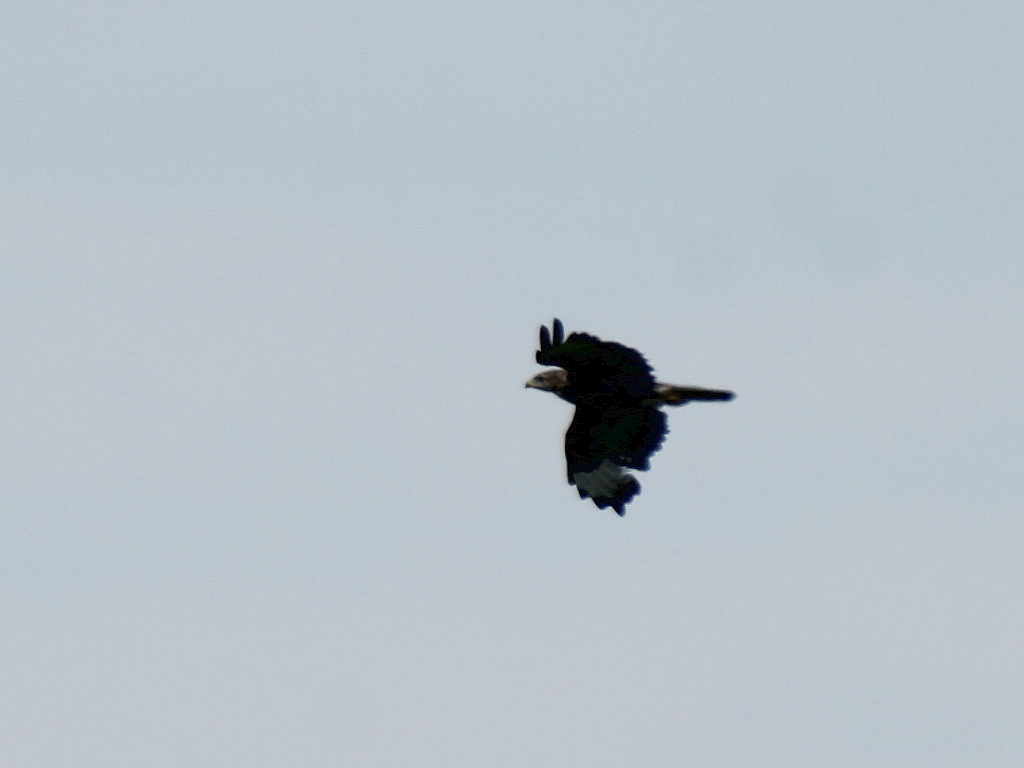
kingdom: Animalia
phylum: Chordata
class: Aves
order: Accipitriformes
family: Accipitridae
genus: Buteo
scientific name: Buteo buteo
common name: Common buzzard
